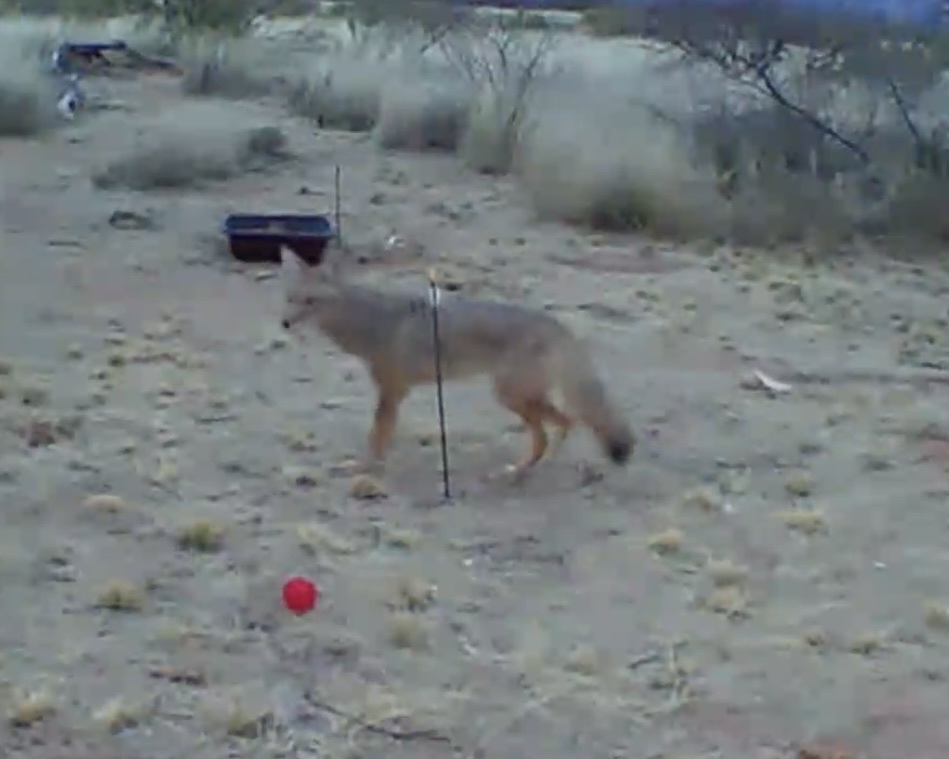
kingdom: Animalia
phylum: Chordata
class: Mammalia
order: Carnivora
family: Canidae
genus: Canis
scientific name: Canis latrans
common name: Coyote
